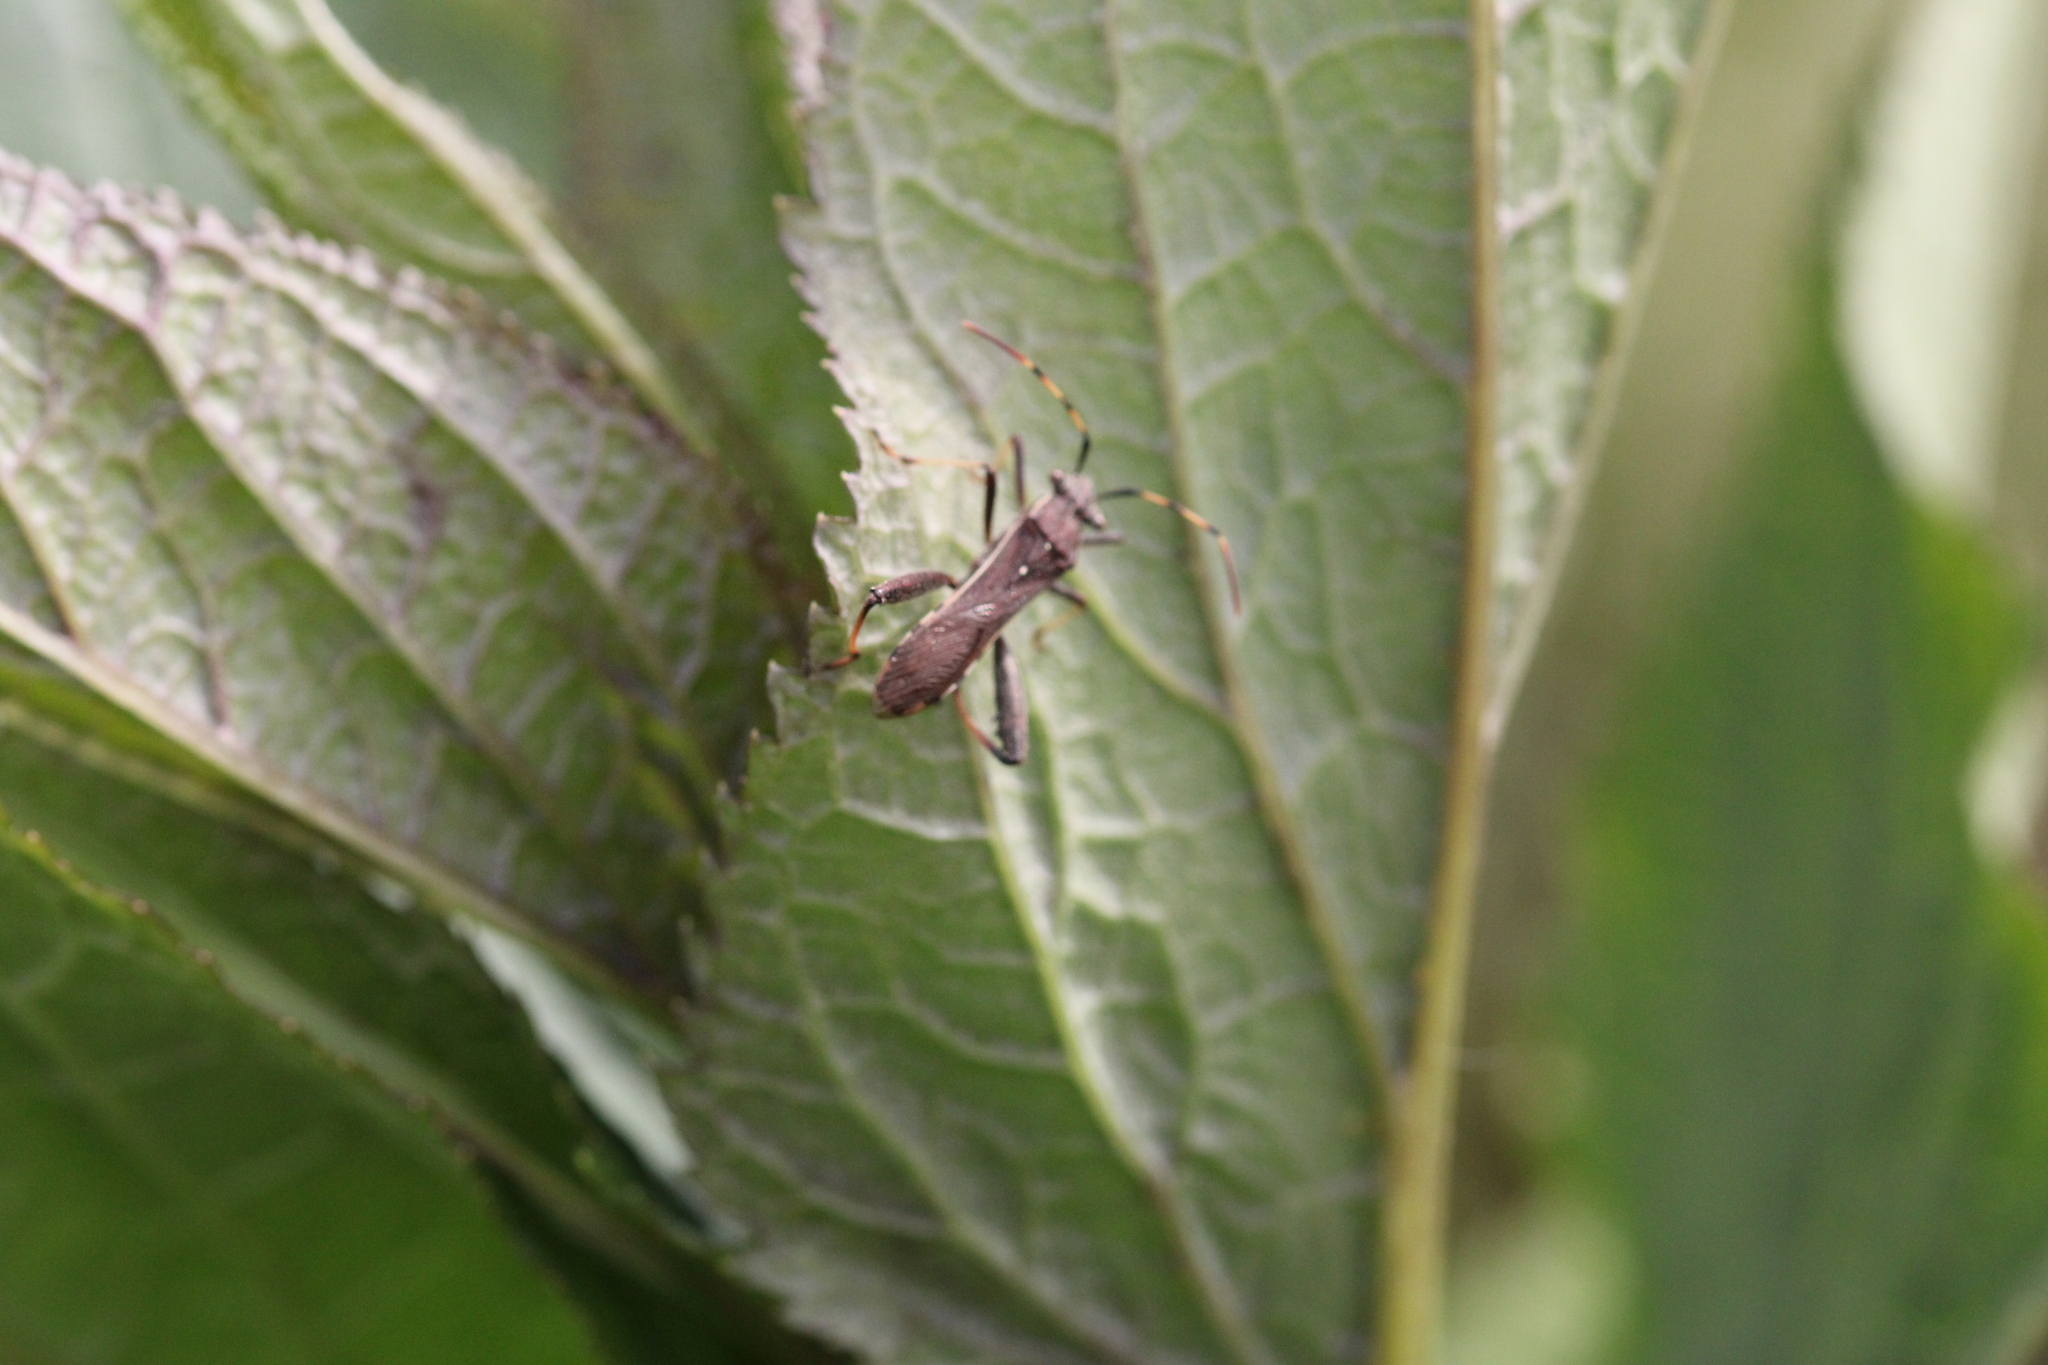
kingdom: Animalia
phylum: Arthropoda
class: Insecta
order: Hemiptera
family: Alydidae
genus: Camptopus
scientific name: Camptopus lateralis
